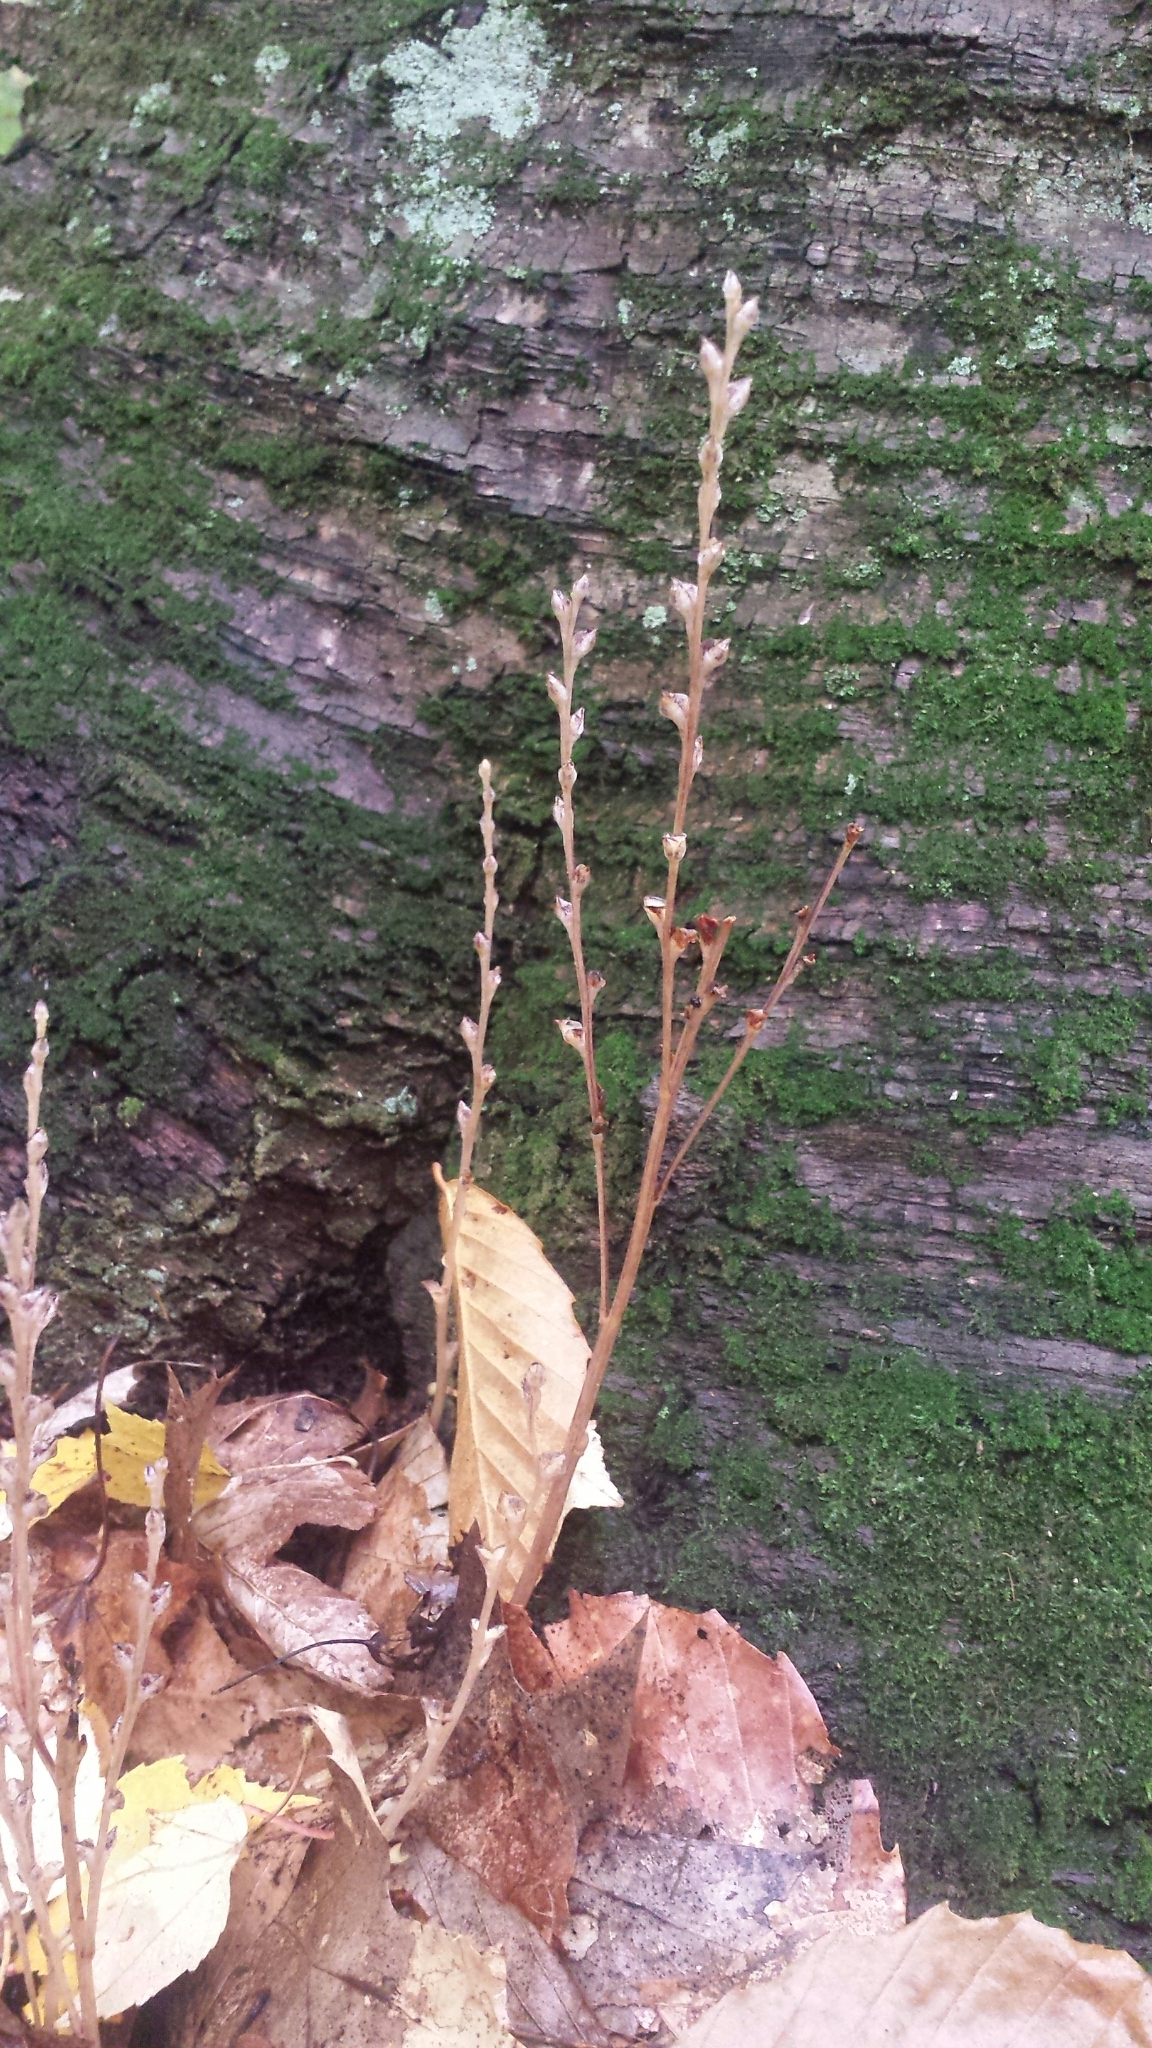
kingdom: Plantae
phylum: Tracheophyta
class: Magnoliopsida
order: Lamiales
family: Orobanchaceae
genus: Epifagus
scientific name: Epifagus virginiana
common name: Beechdrops
